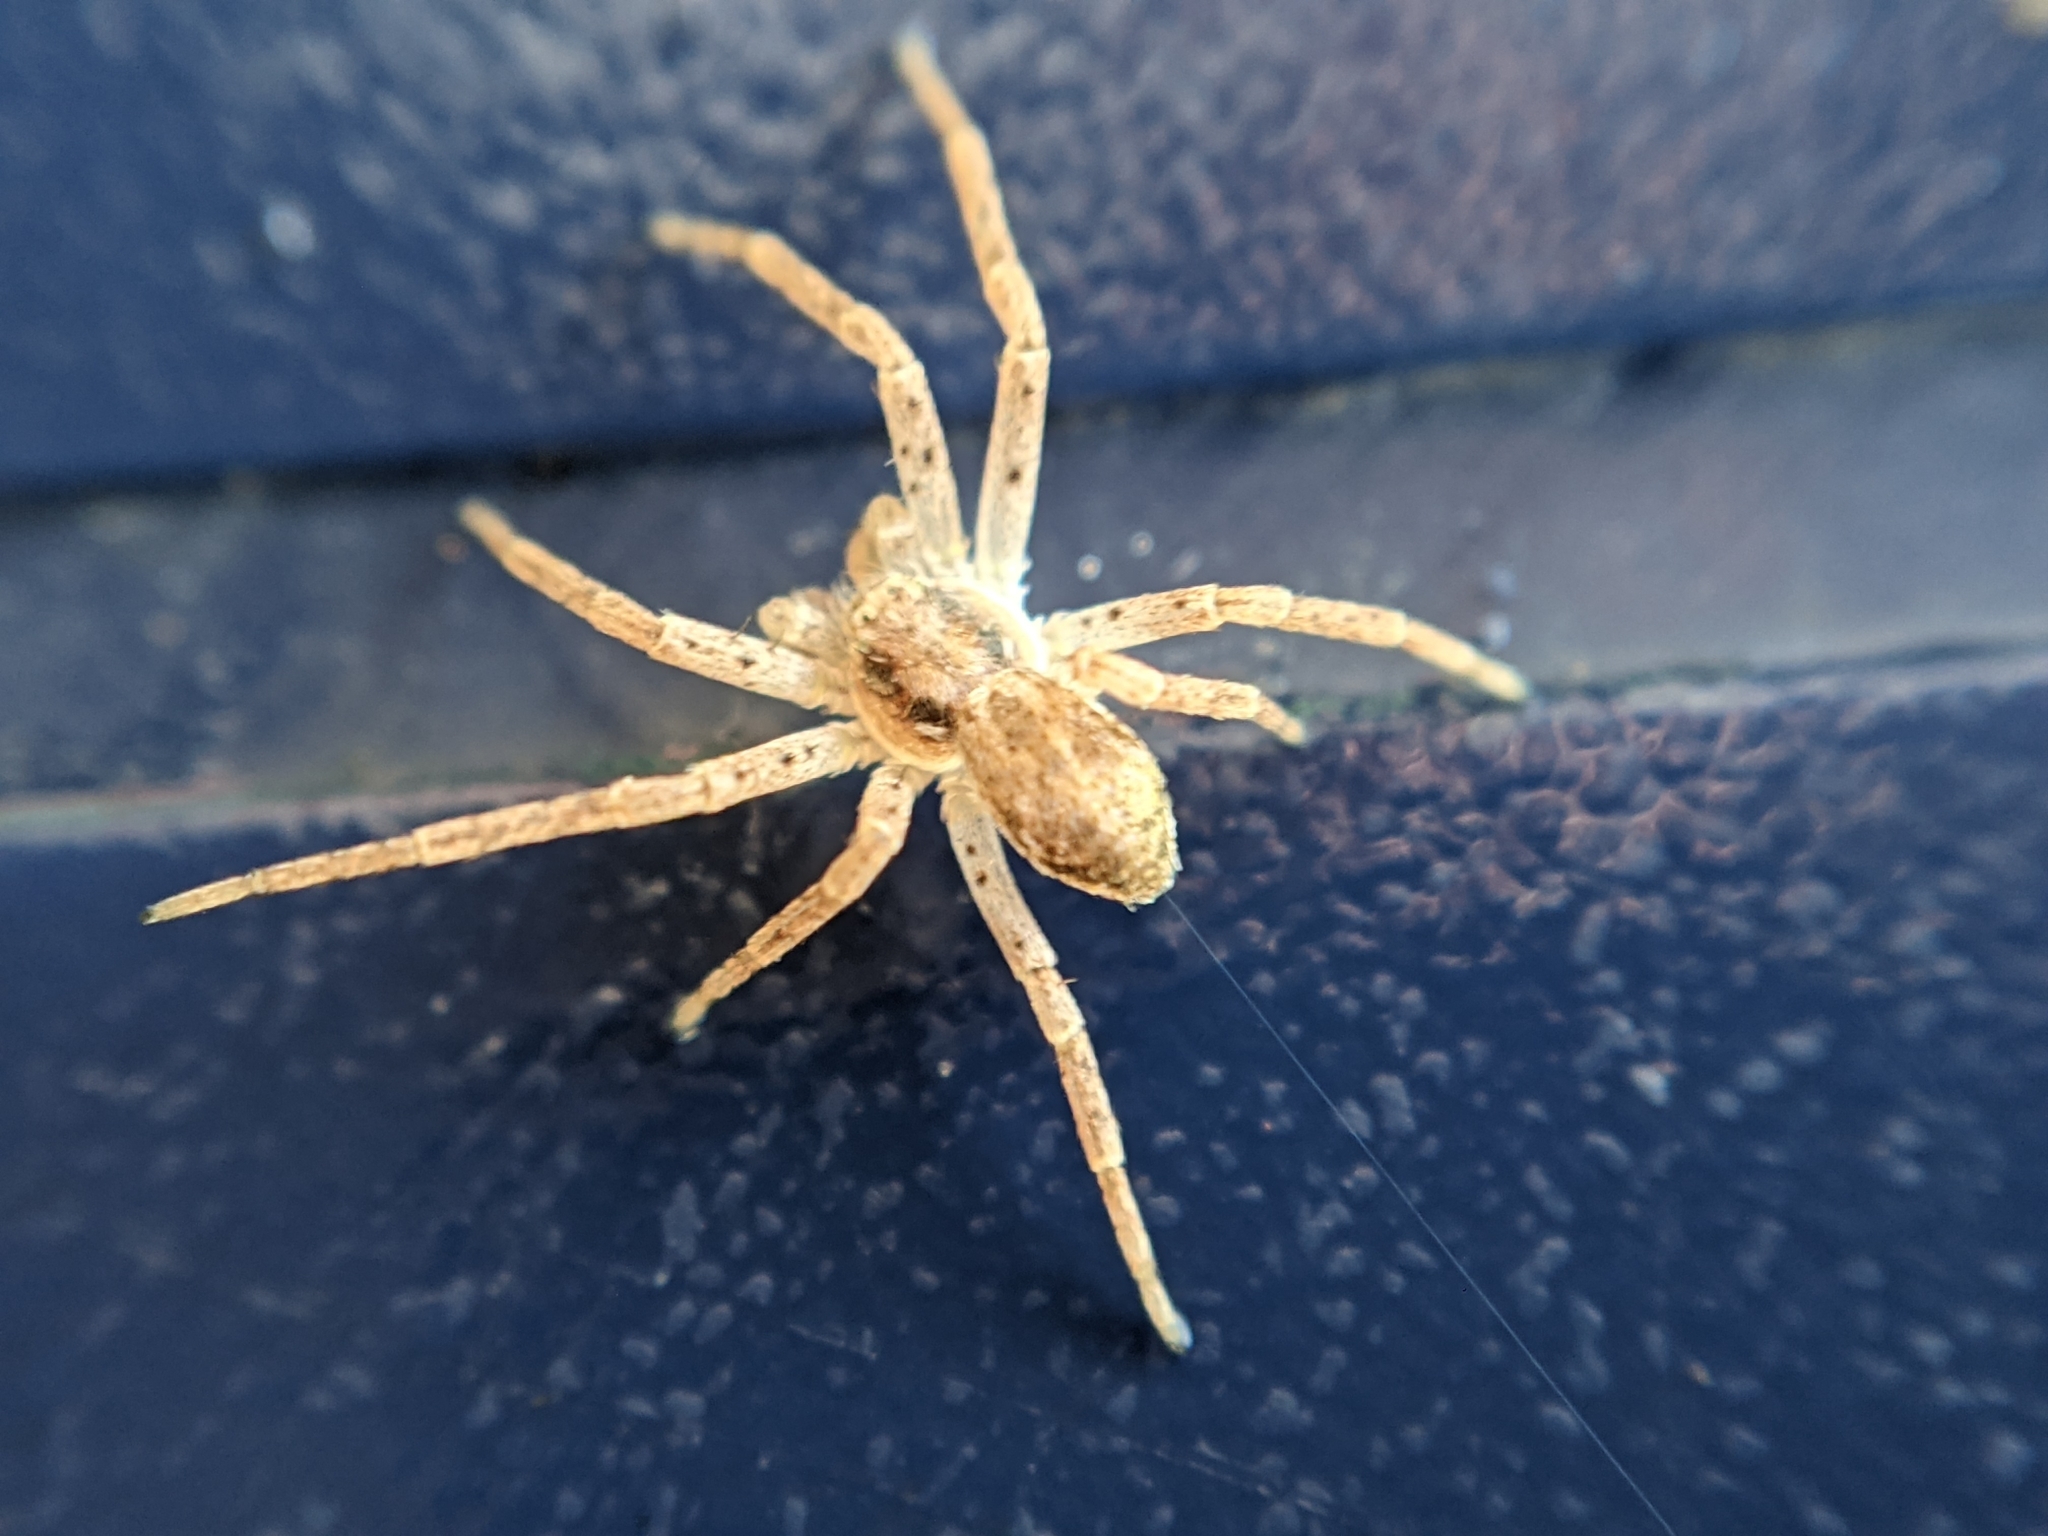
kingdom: Animalia
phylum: Arthropoda
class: Arachnida
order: Araneae
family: Philodromidae
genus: Philodromus
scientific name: Philodromus dispar
